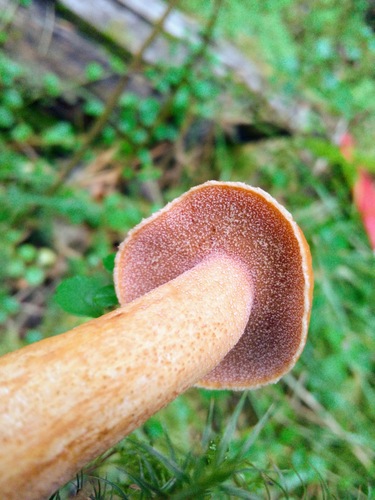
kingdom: Fungi
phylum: Basidiomycota
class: Agaricomycetes
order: Boletales
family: Suillaceae
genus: Suillus
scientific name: Suillus plorans
